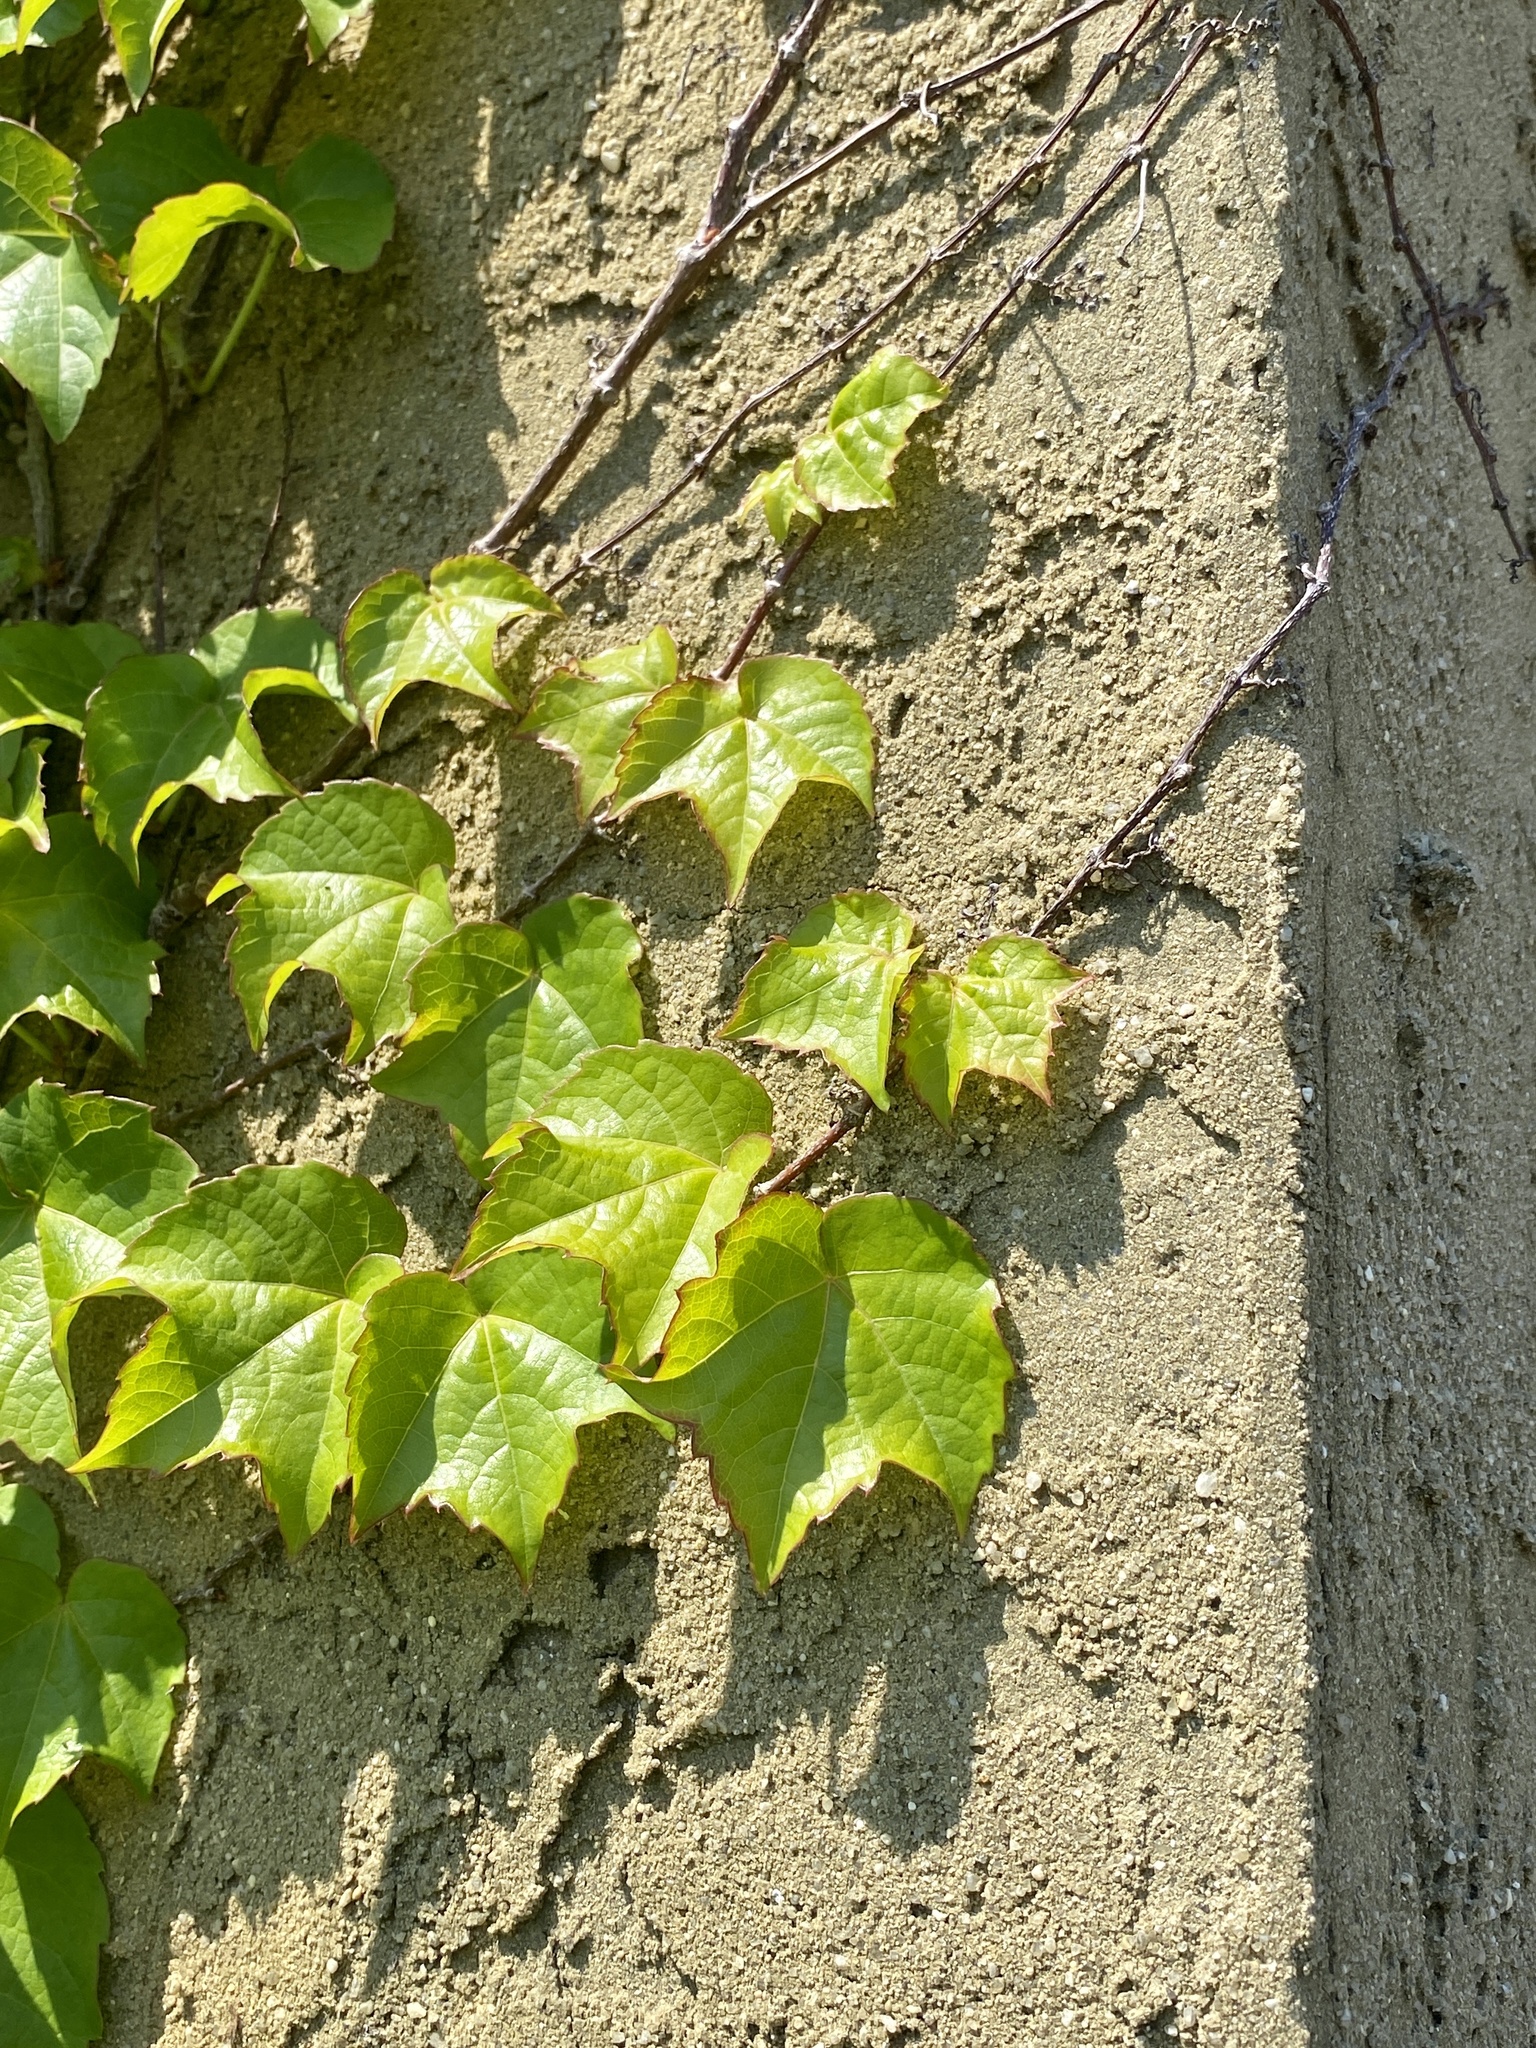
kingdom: Plantae
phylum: Tracheophyta
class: Magnoliopsida
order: Vitales
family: Vitaceae
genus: Parthenocissus
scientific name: Parthenocissus tricuspidata
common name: Boston ivy
